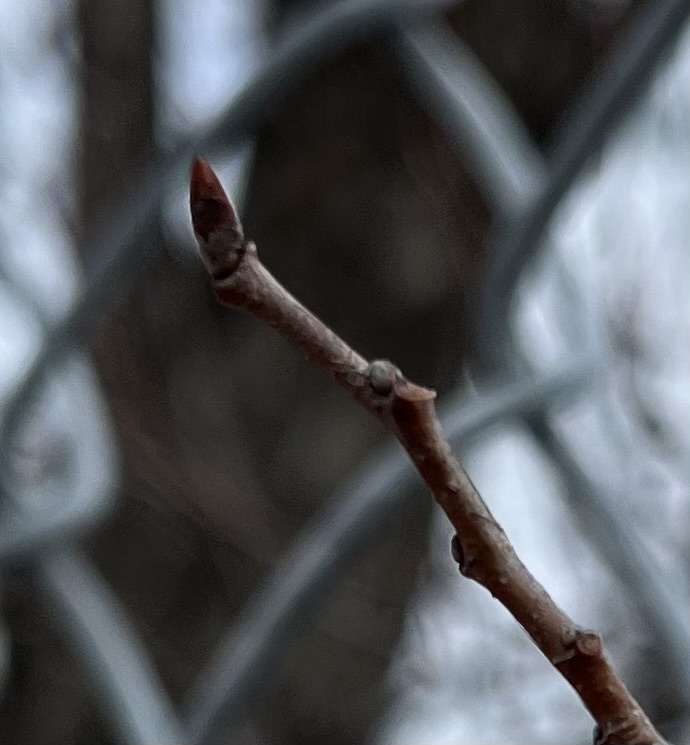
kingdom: Plantae
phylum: Tracheophyta
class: Magnoliopsida
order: Rosales
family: Ulmaceae
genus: Ulmus
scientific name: Ulmus americana
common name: American elm
